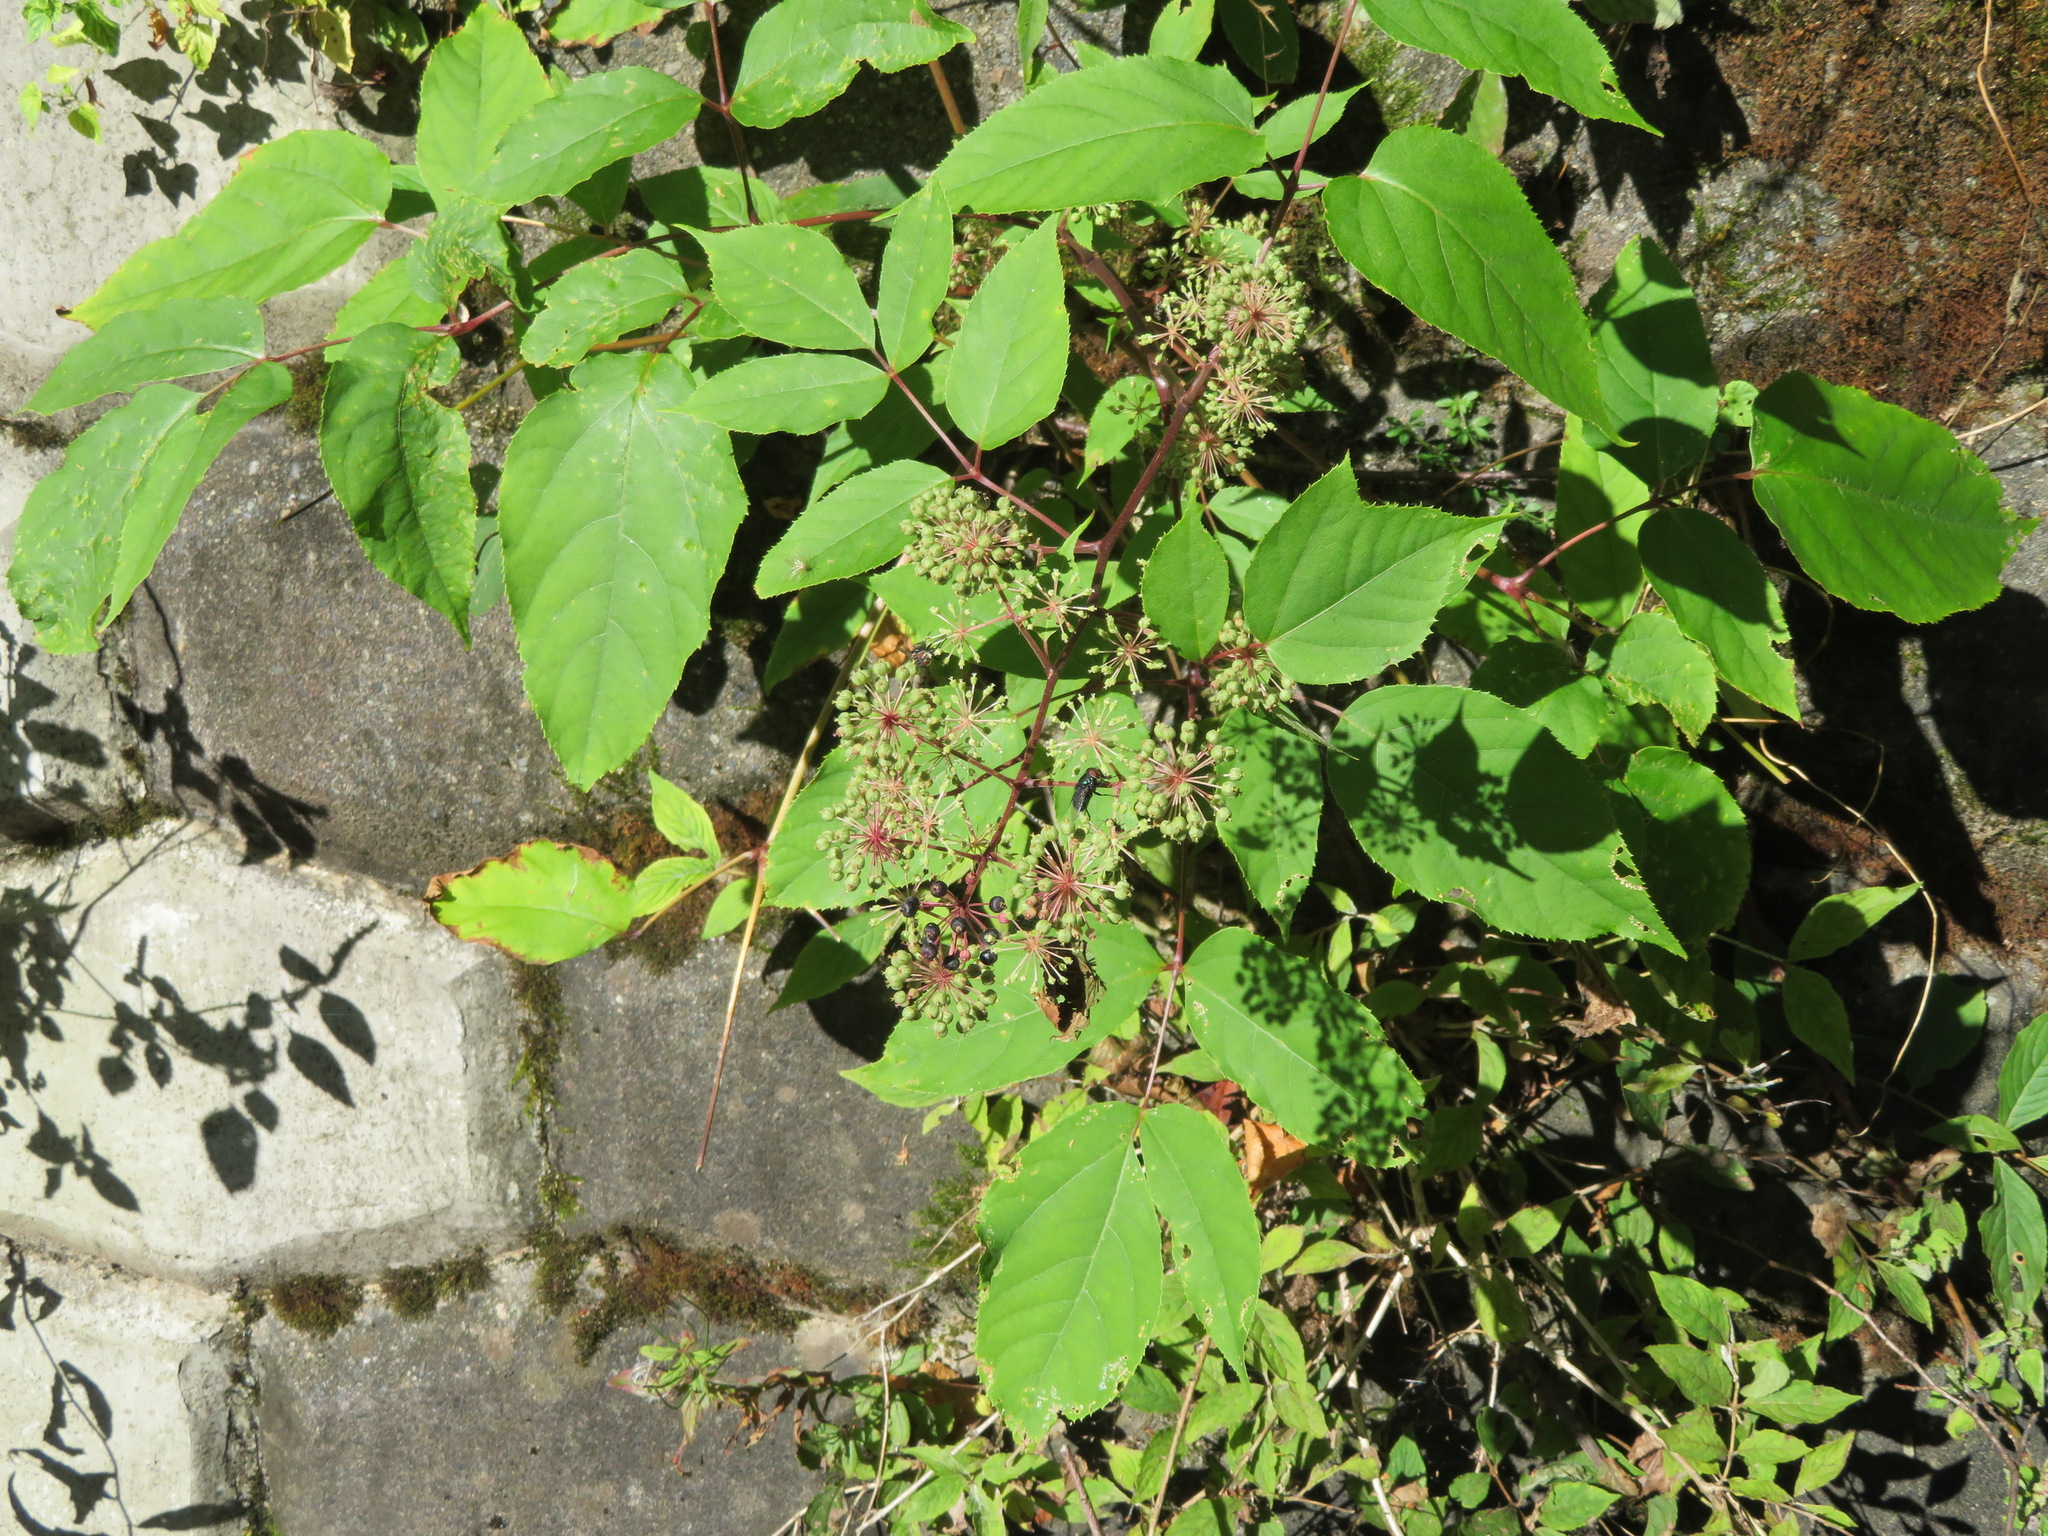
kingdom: Plantae
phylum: Tracheophyta
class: Magnoliopsida
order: Apiales
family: Araliaceae
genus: Aralia
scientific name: Aralia cordata
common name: Udo
